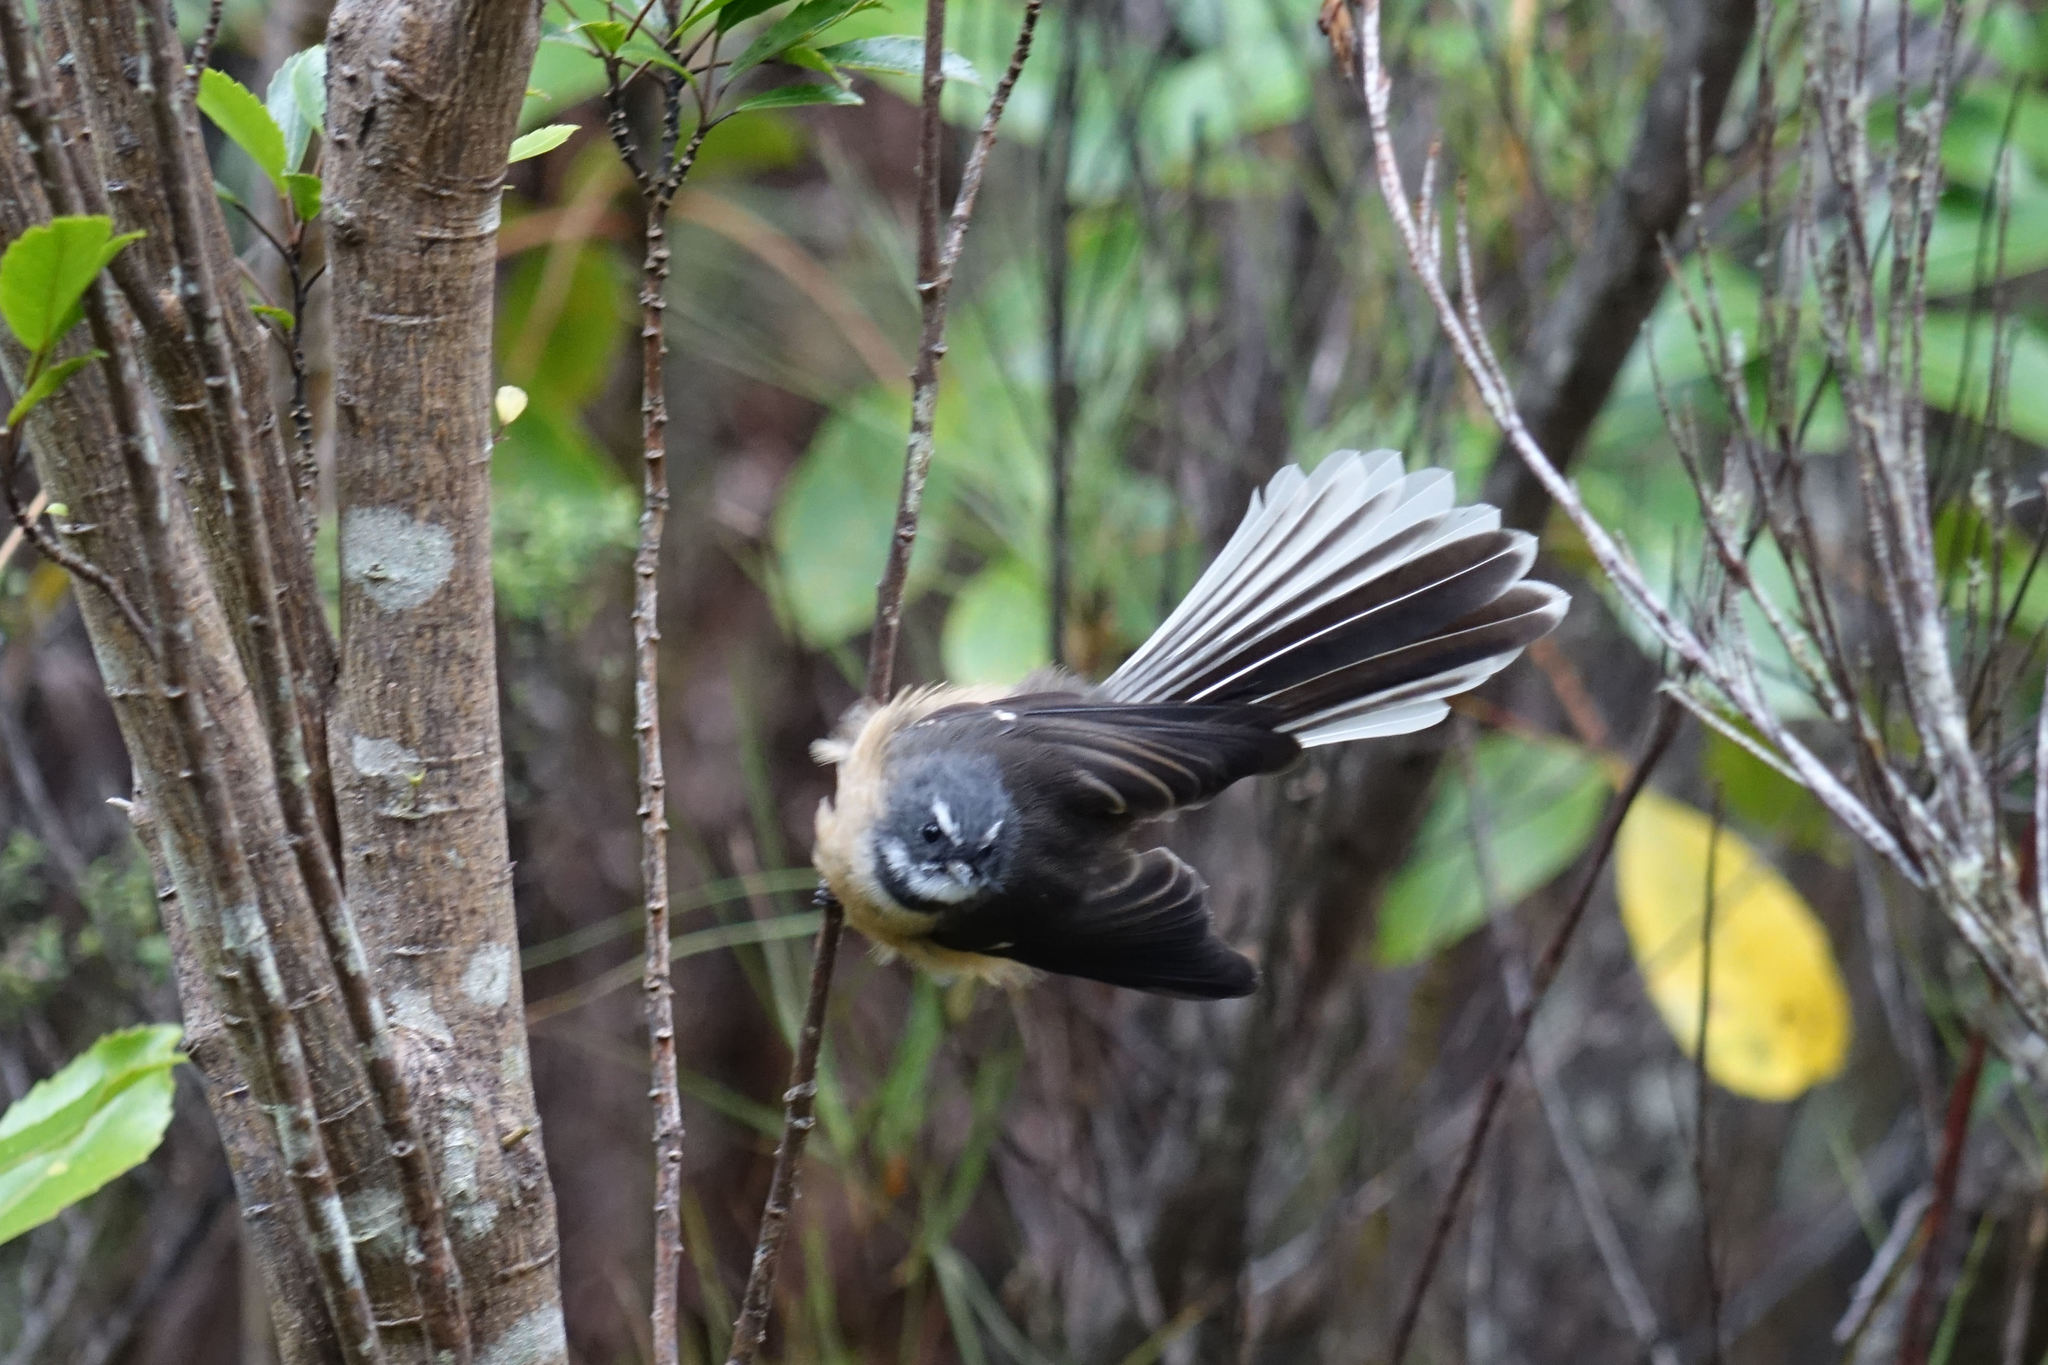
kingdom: Animalia
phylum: Chordata
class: Aves
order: Passeriformes
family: Rhipiduridae
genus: Rhipidura
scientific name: Rhipidura fuliginosa
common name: New zealand fantail
